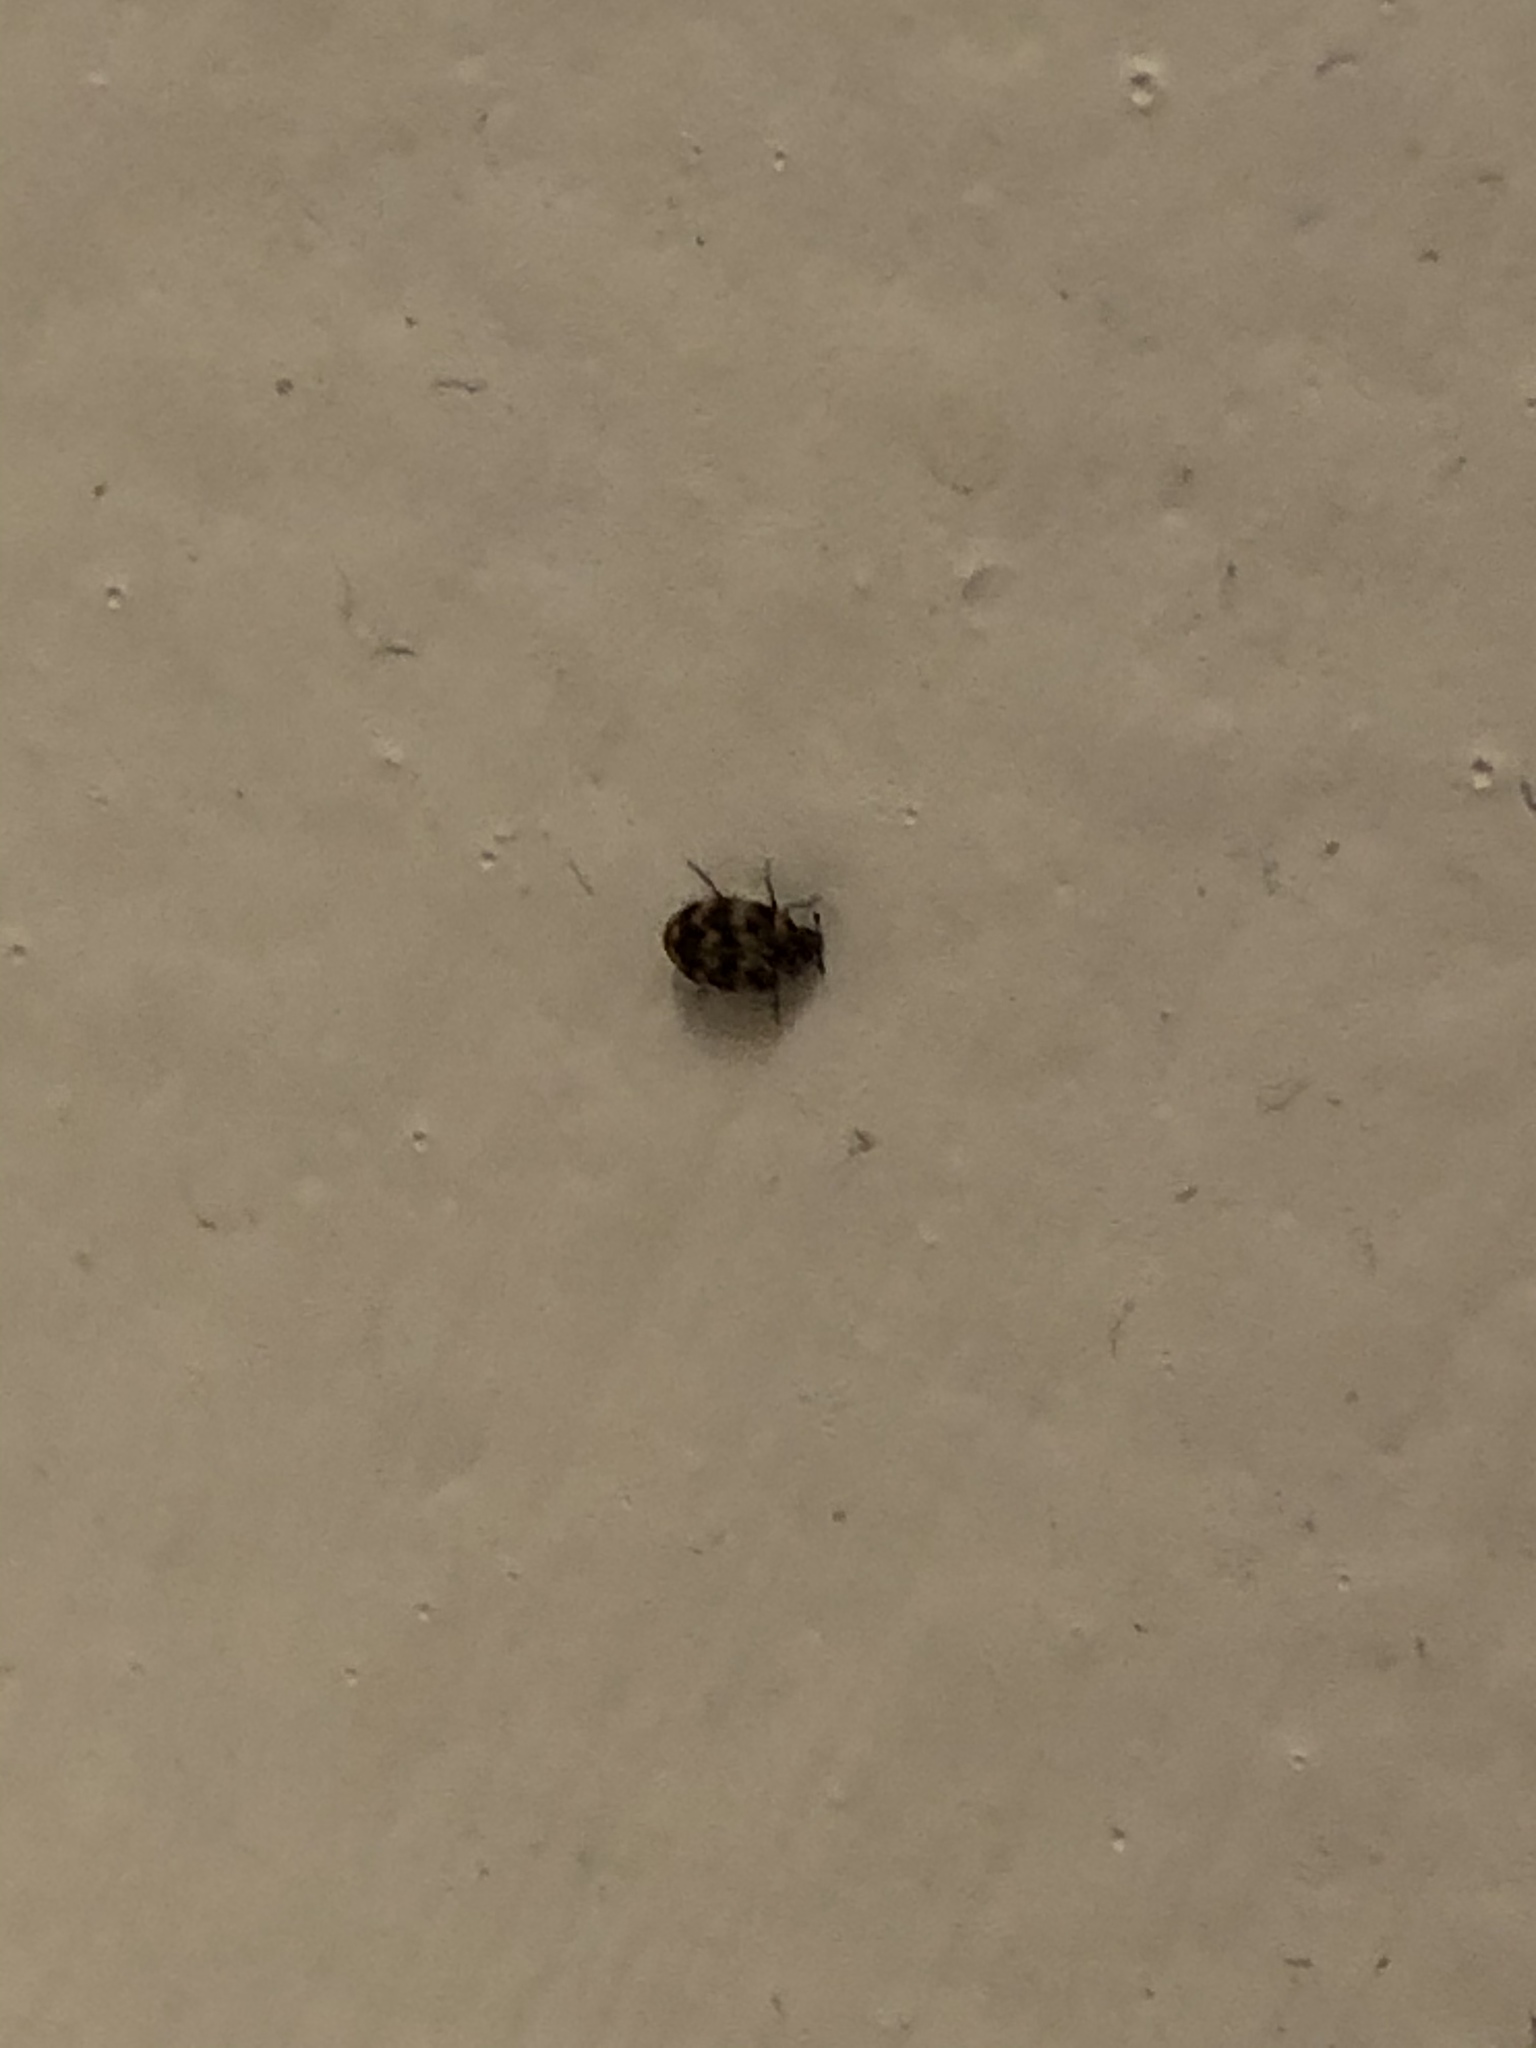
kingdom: Animalia
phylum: Arthropoda
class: Insecta
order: Coleoptera
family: Dermestidae
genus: Anthrenus
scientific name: Anthrenus verbasci
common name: Varied carpet beetle
